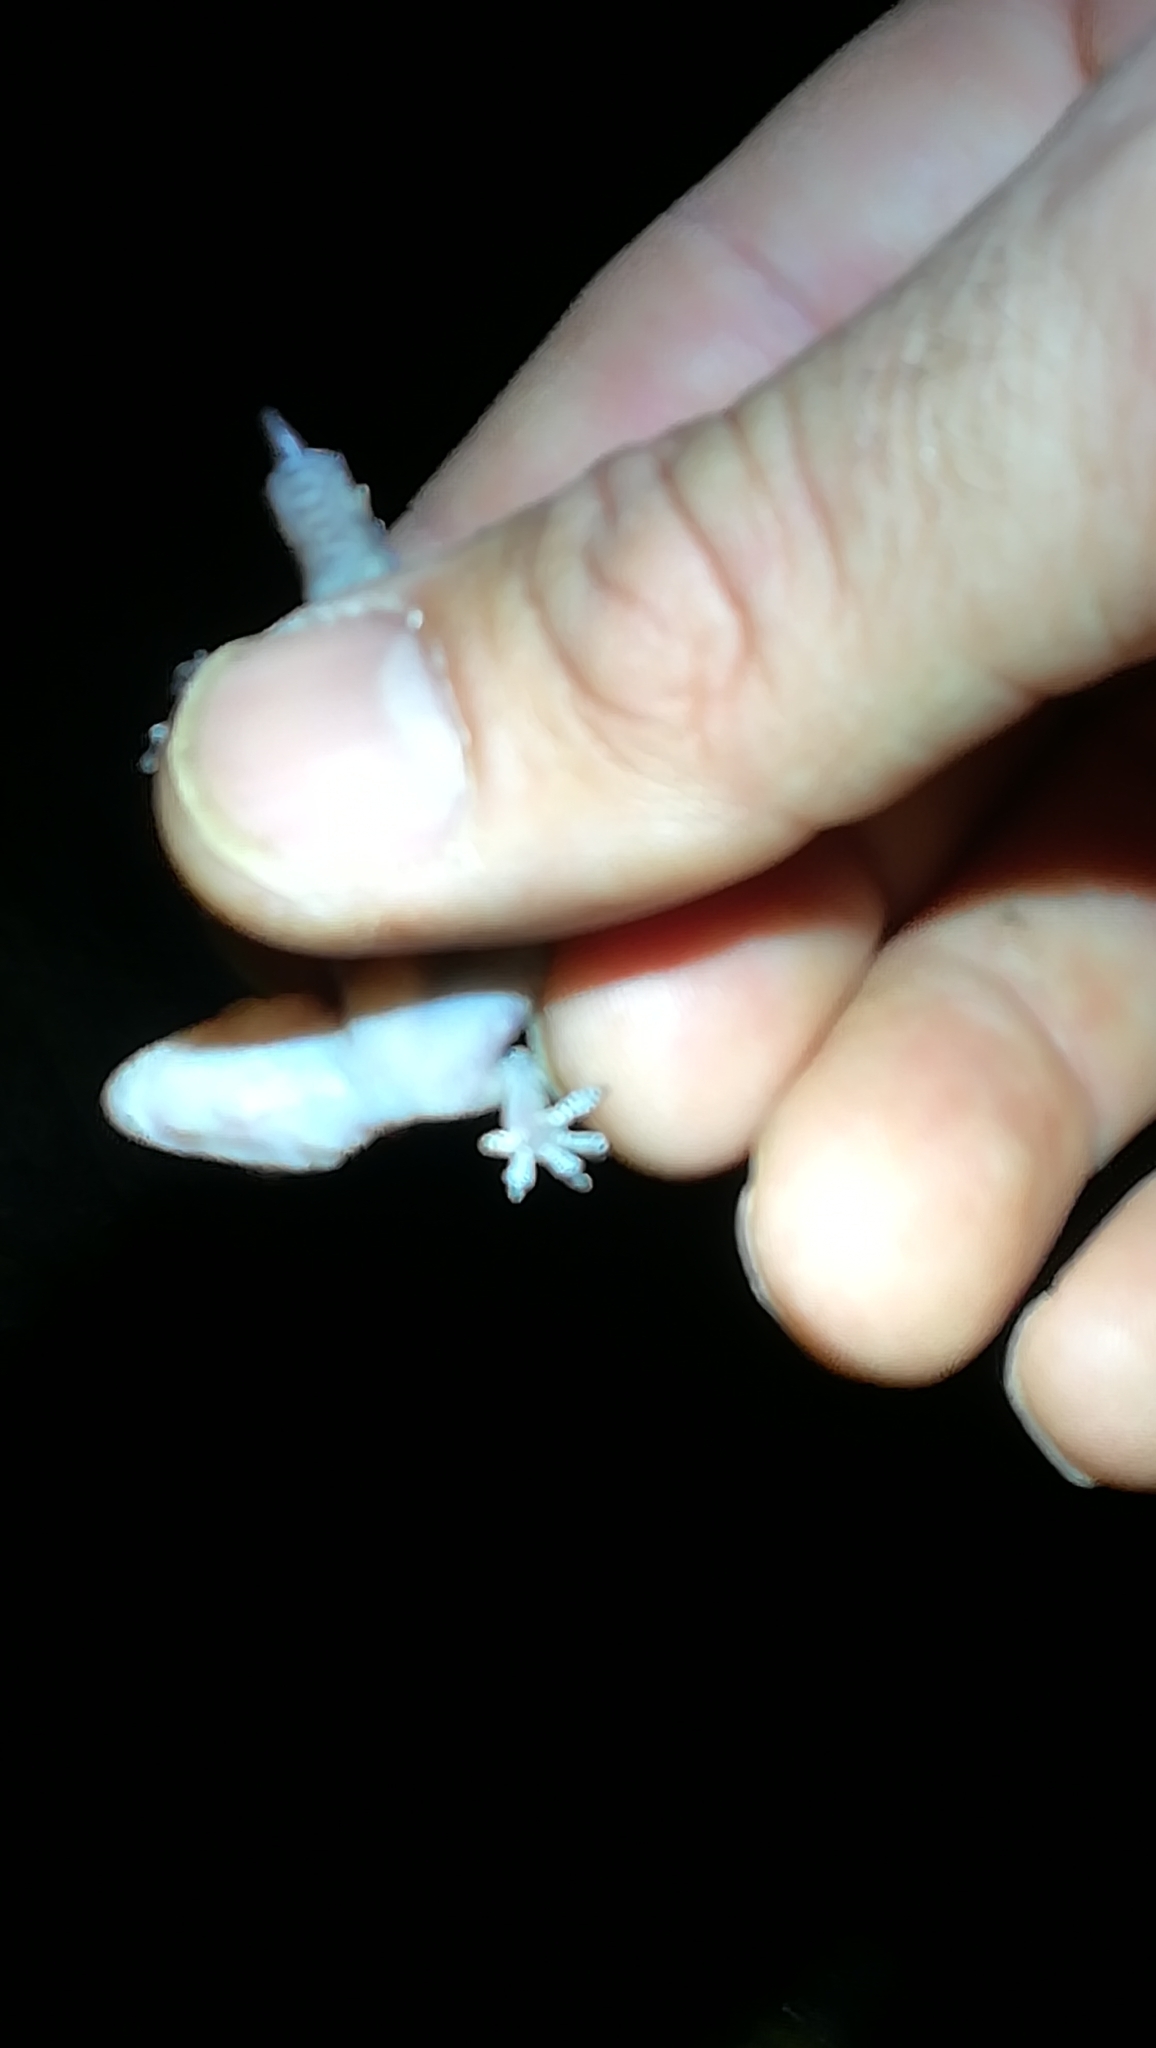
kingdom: Animalia
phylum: Chordata
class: Squamata
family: Phyllodactylidae
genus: Tarentola
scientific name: Tarentola mauritanica
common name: Moorish gecko
